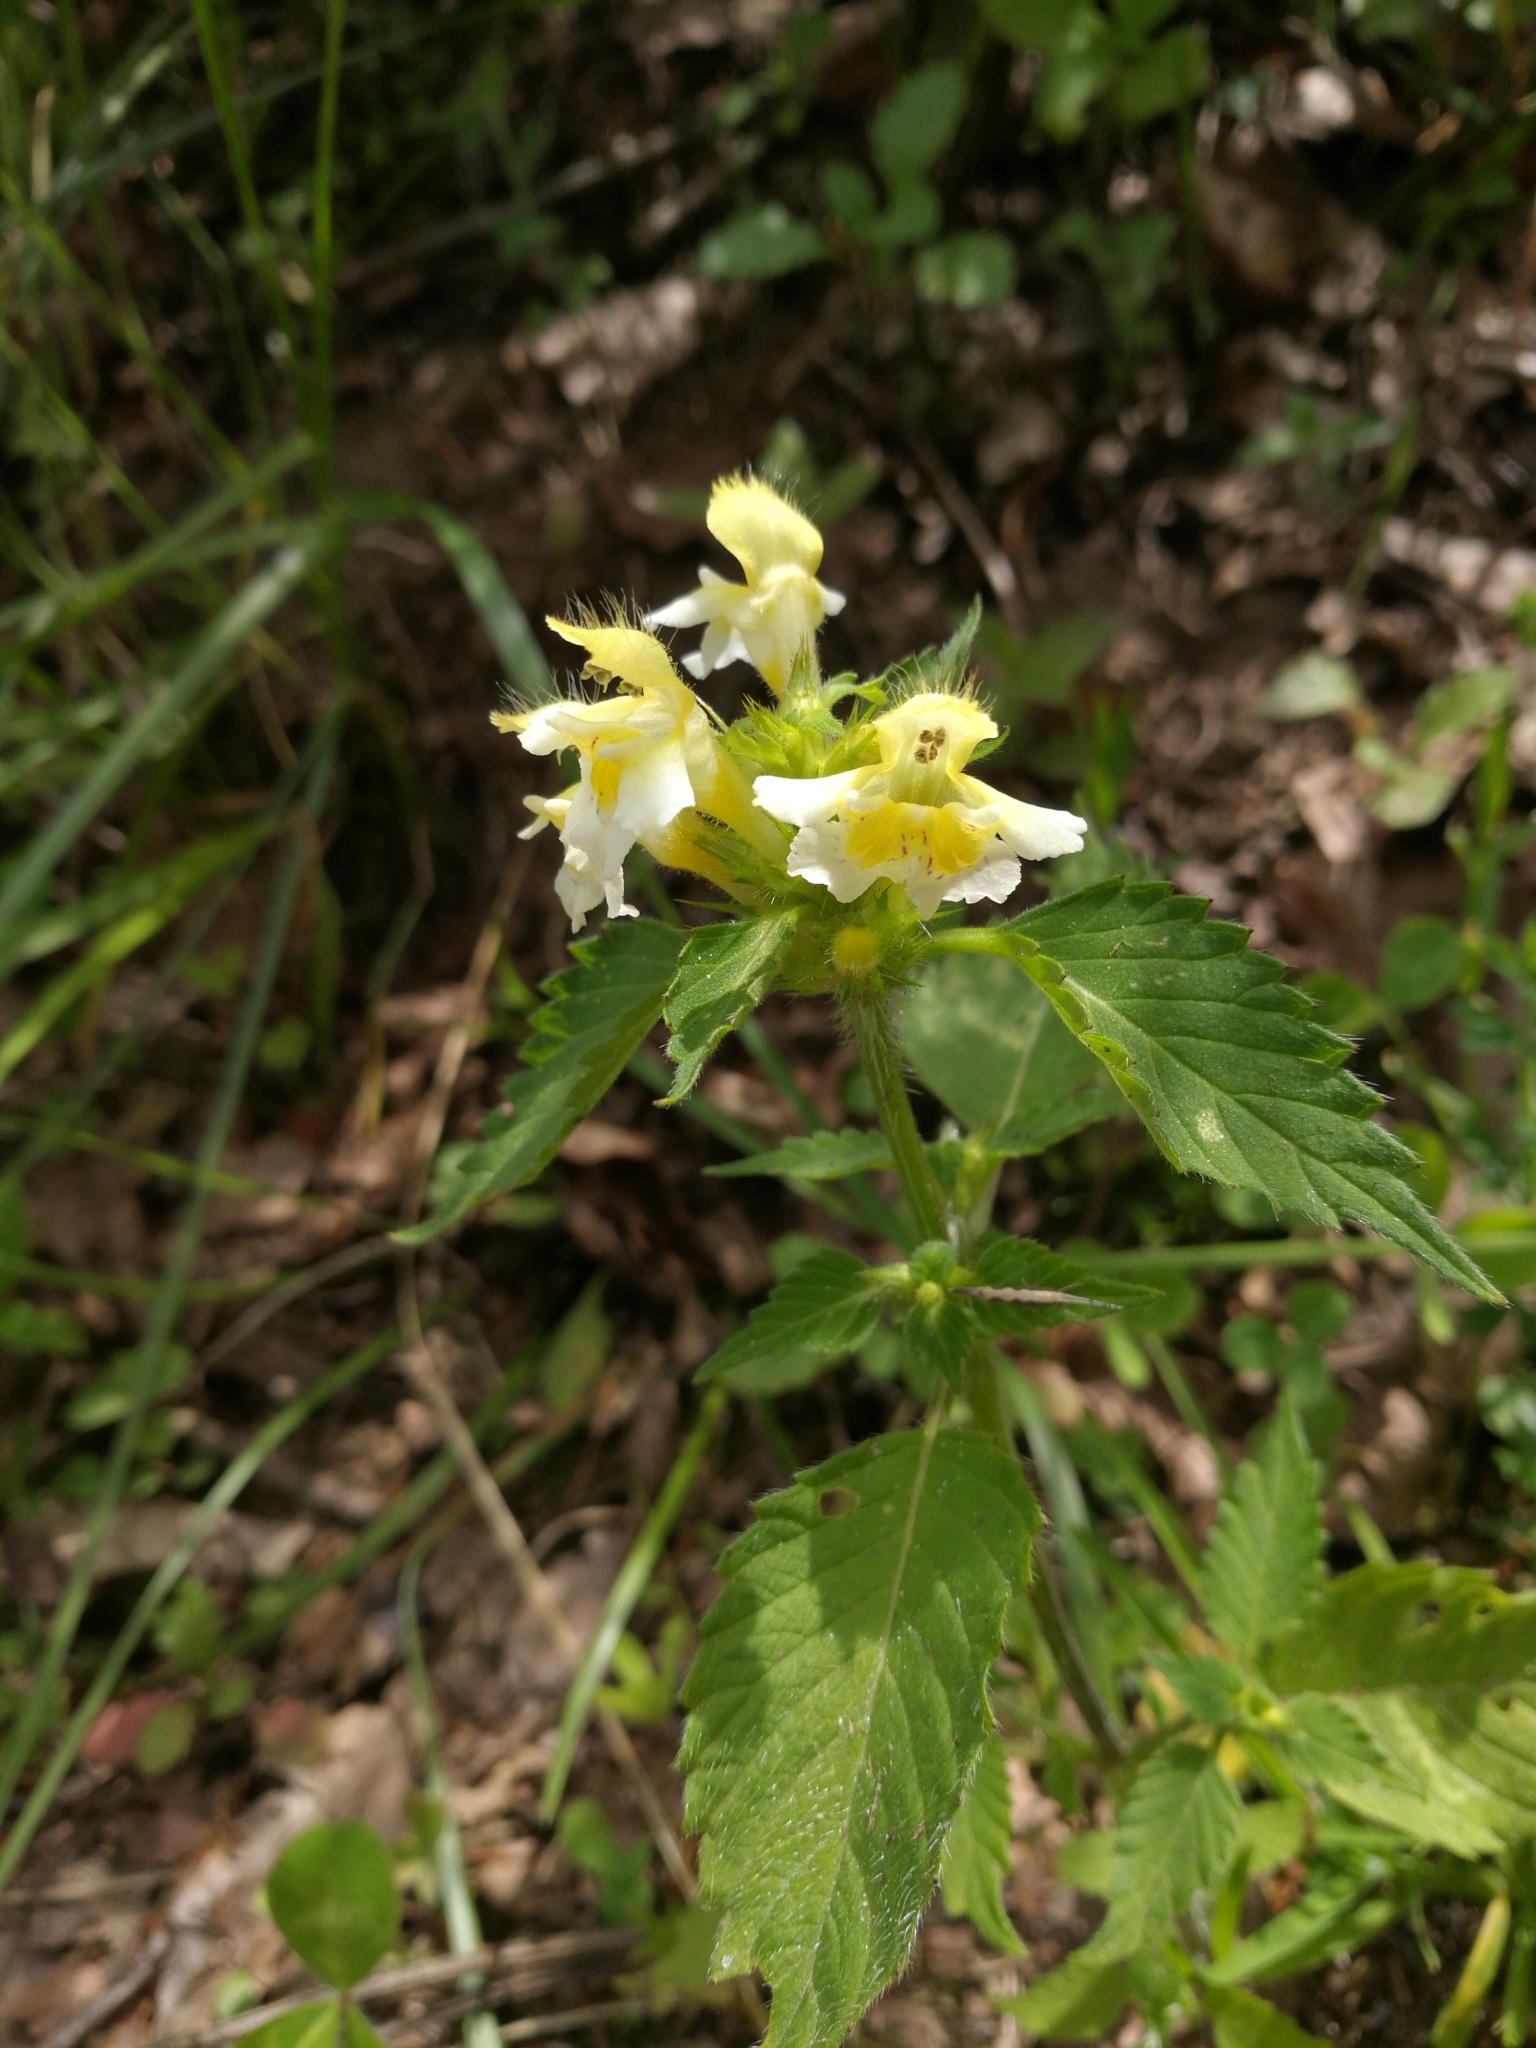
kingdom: Plantae
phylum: Tracheophyta
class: Magnoliopsida
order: Lamiales
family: Lamiaceae
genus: Galeopsis
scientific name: Galeopsis pubescens
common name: Downy hemp-nettle
